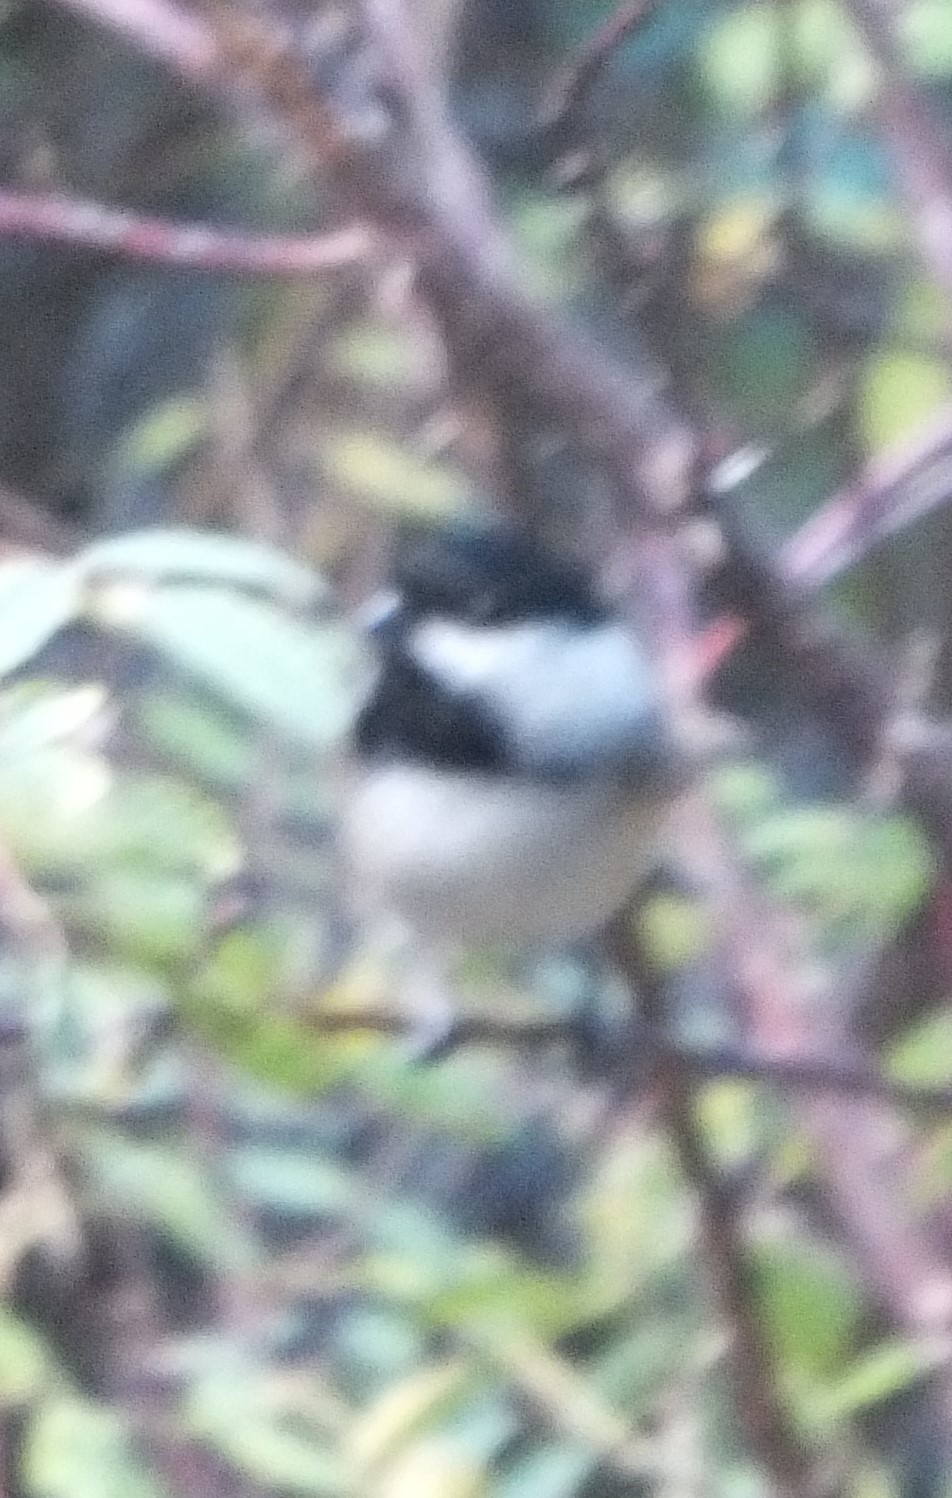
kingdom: Animalia
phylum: Chordata
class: Aves
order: Passeriformes
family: Paridae
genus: Poecile
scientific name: Poecile atricapillus
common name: Black-capped chickadee
